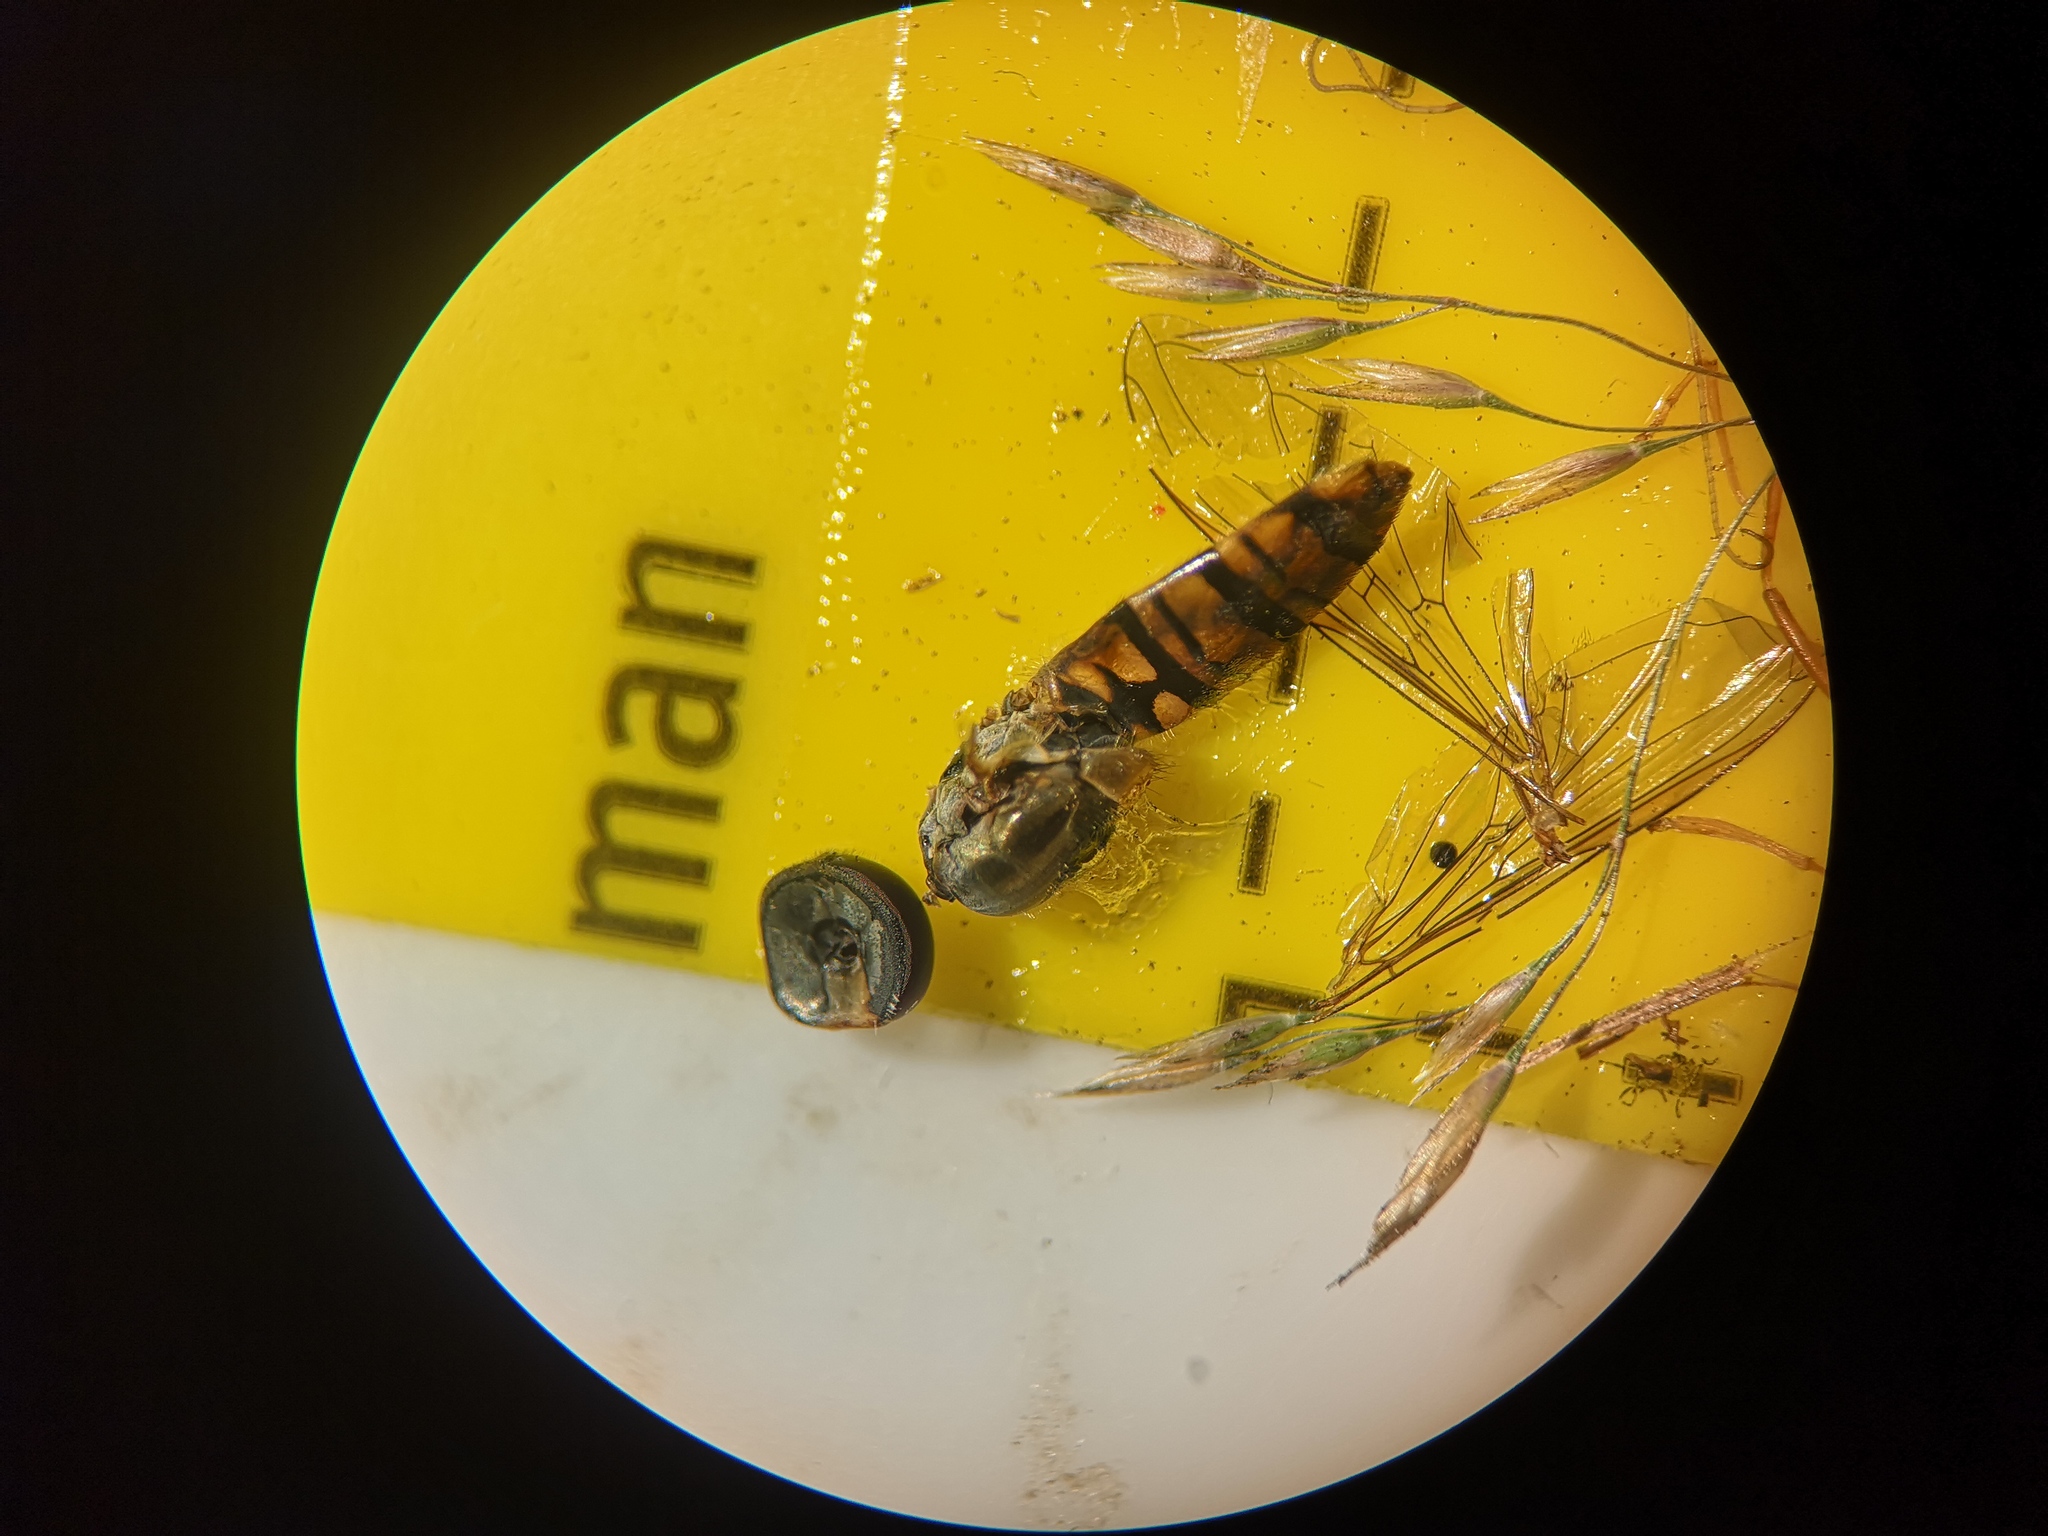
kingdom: Animalia
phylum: Arthropoda
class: Insecta
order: Diptera
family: Syrphidae
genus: Episyrphus
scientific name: Episyrphus balteatus
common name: Marmalade hoverfly
